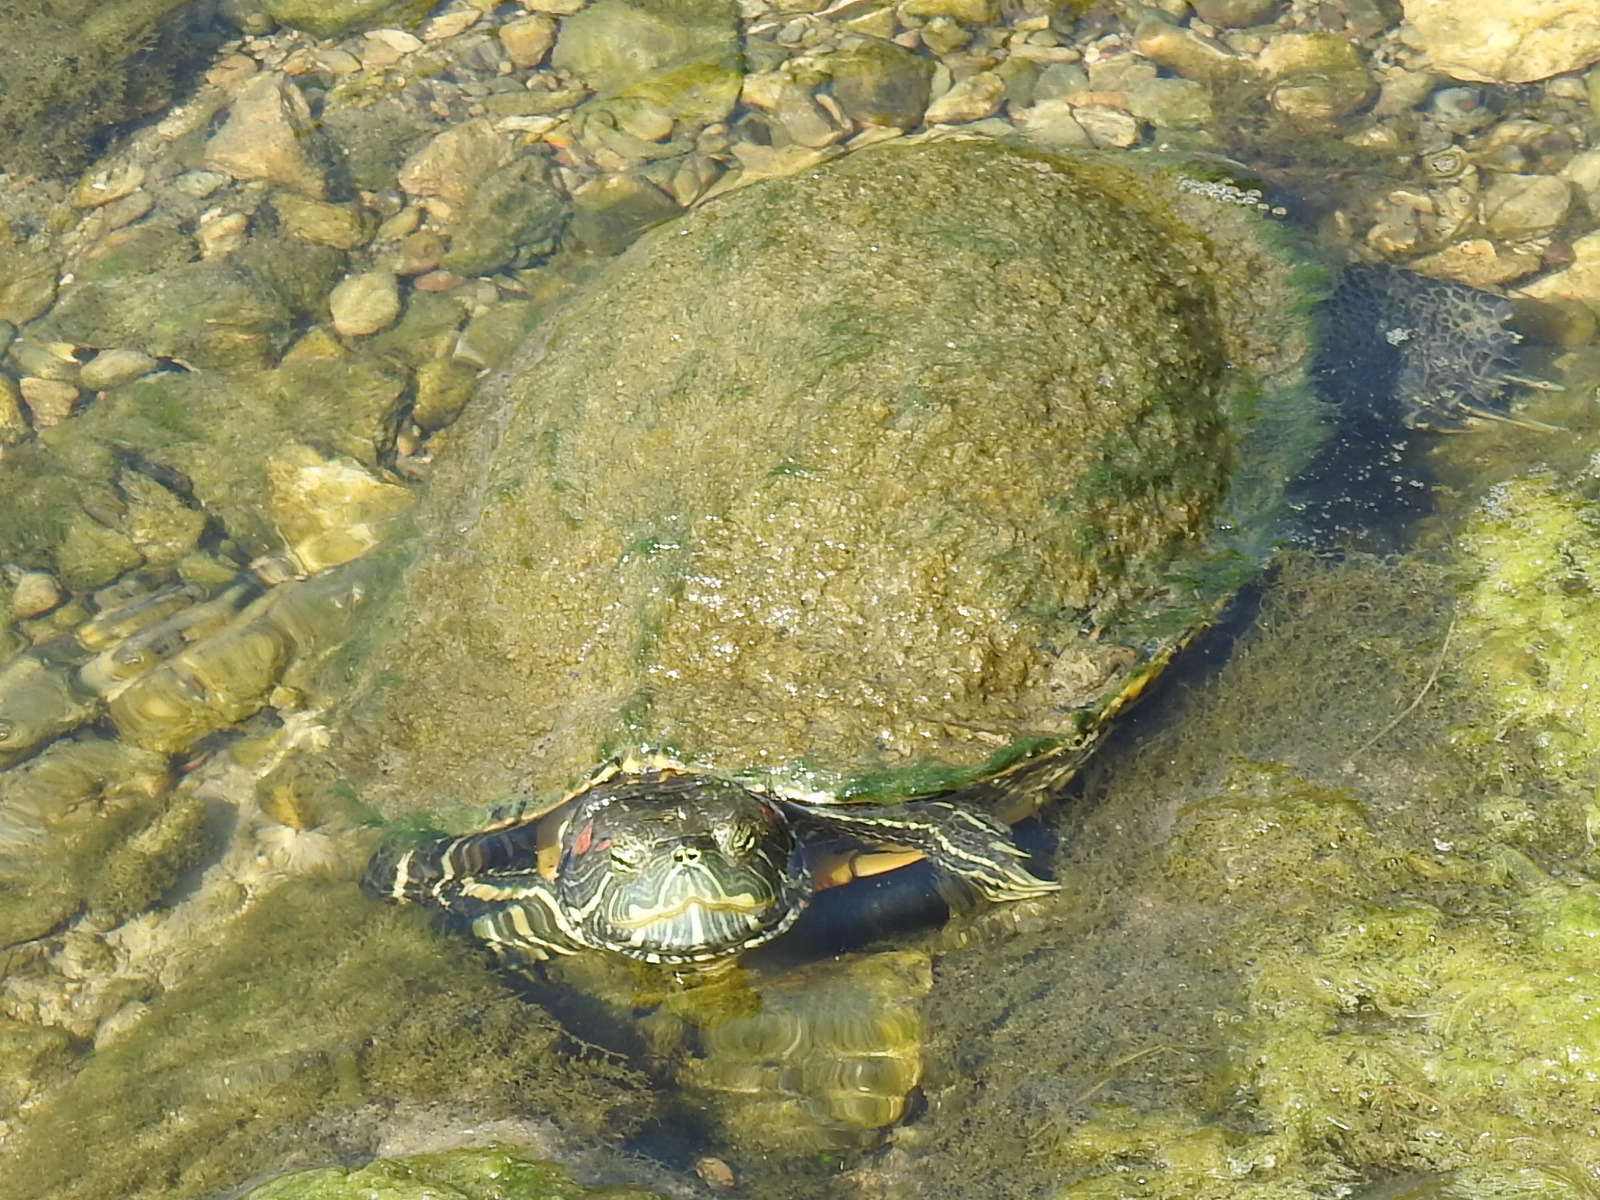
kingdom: Animalia
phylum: Chordata
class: Testudines
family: Emydidae
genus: Trachemys
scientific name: Trachemys scripta
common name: Slider
